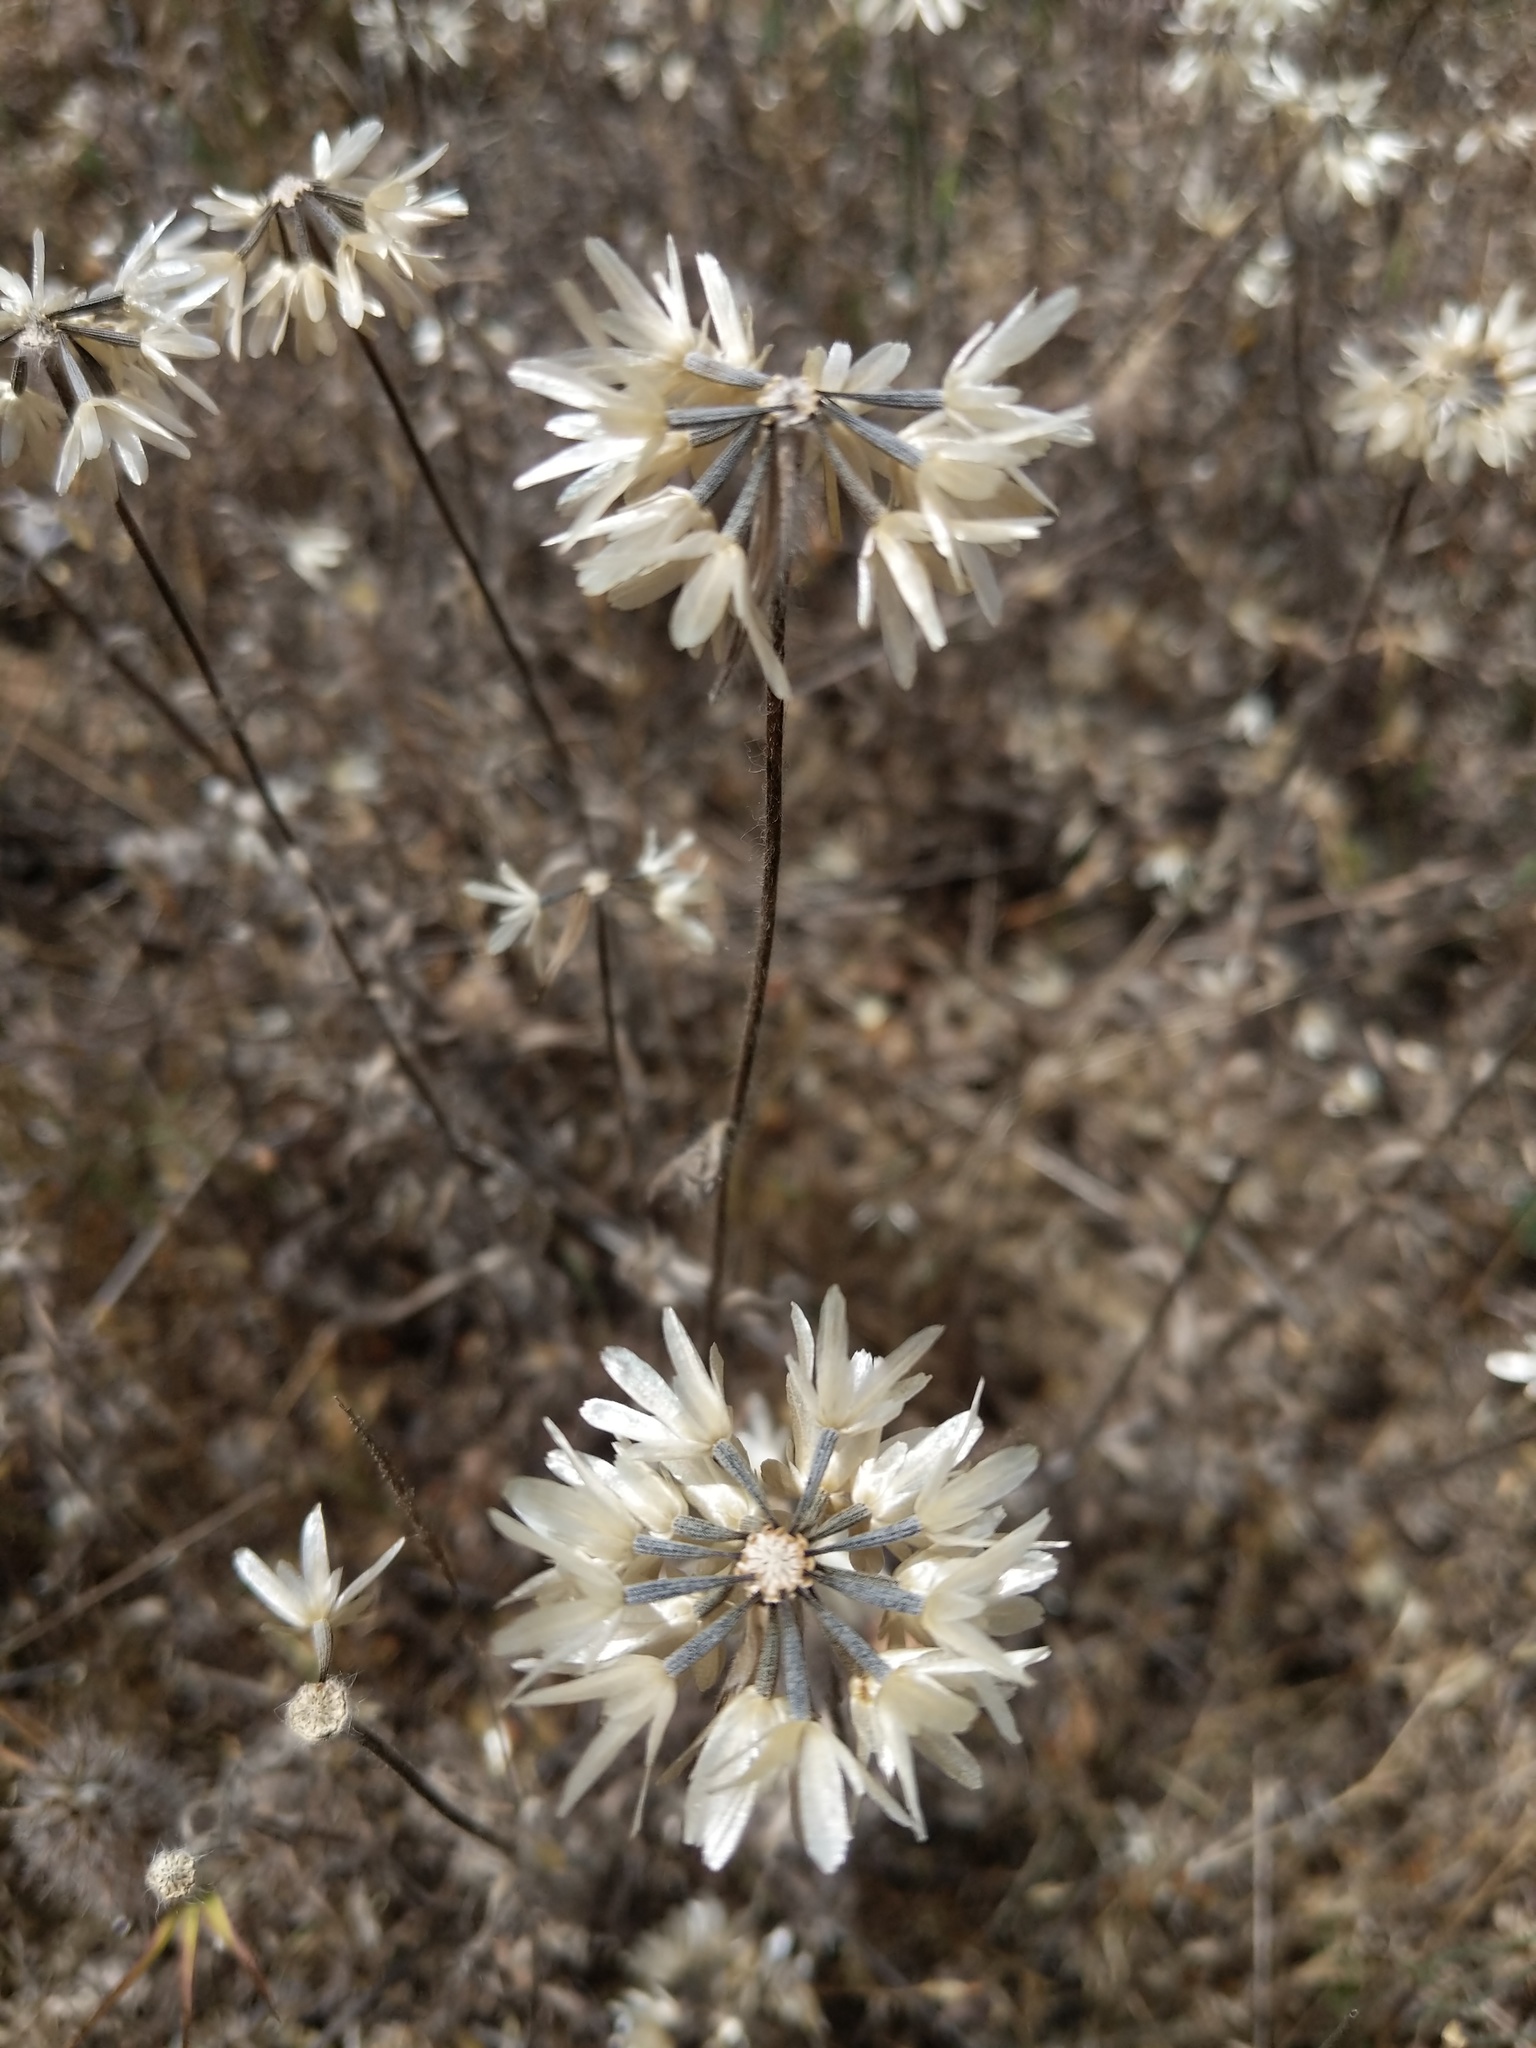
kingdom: Plantae
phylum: Tracheophyta
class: Magnoliopsida
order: Asterales
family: Asteraceae
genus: Achyrachaena
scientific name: Achyrachaena mollis
